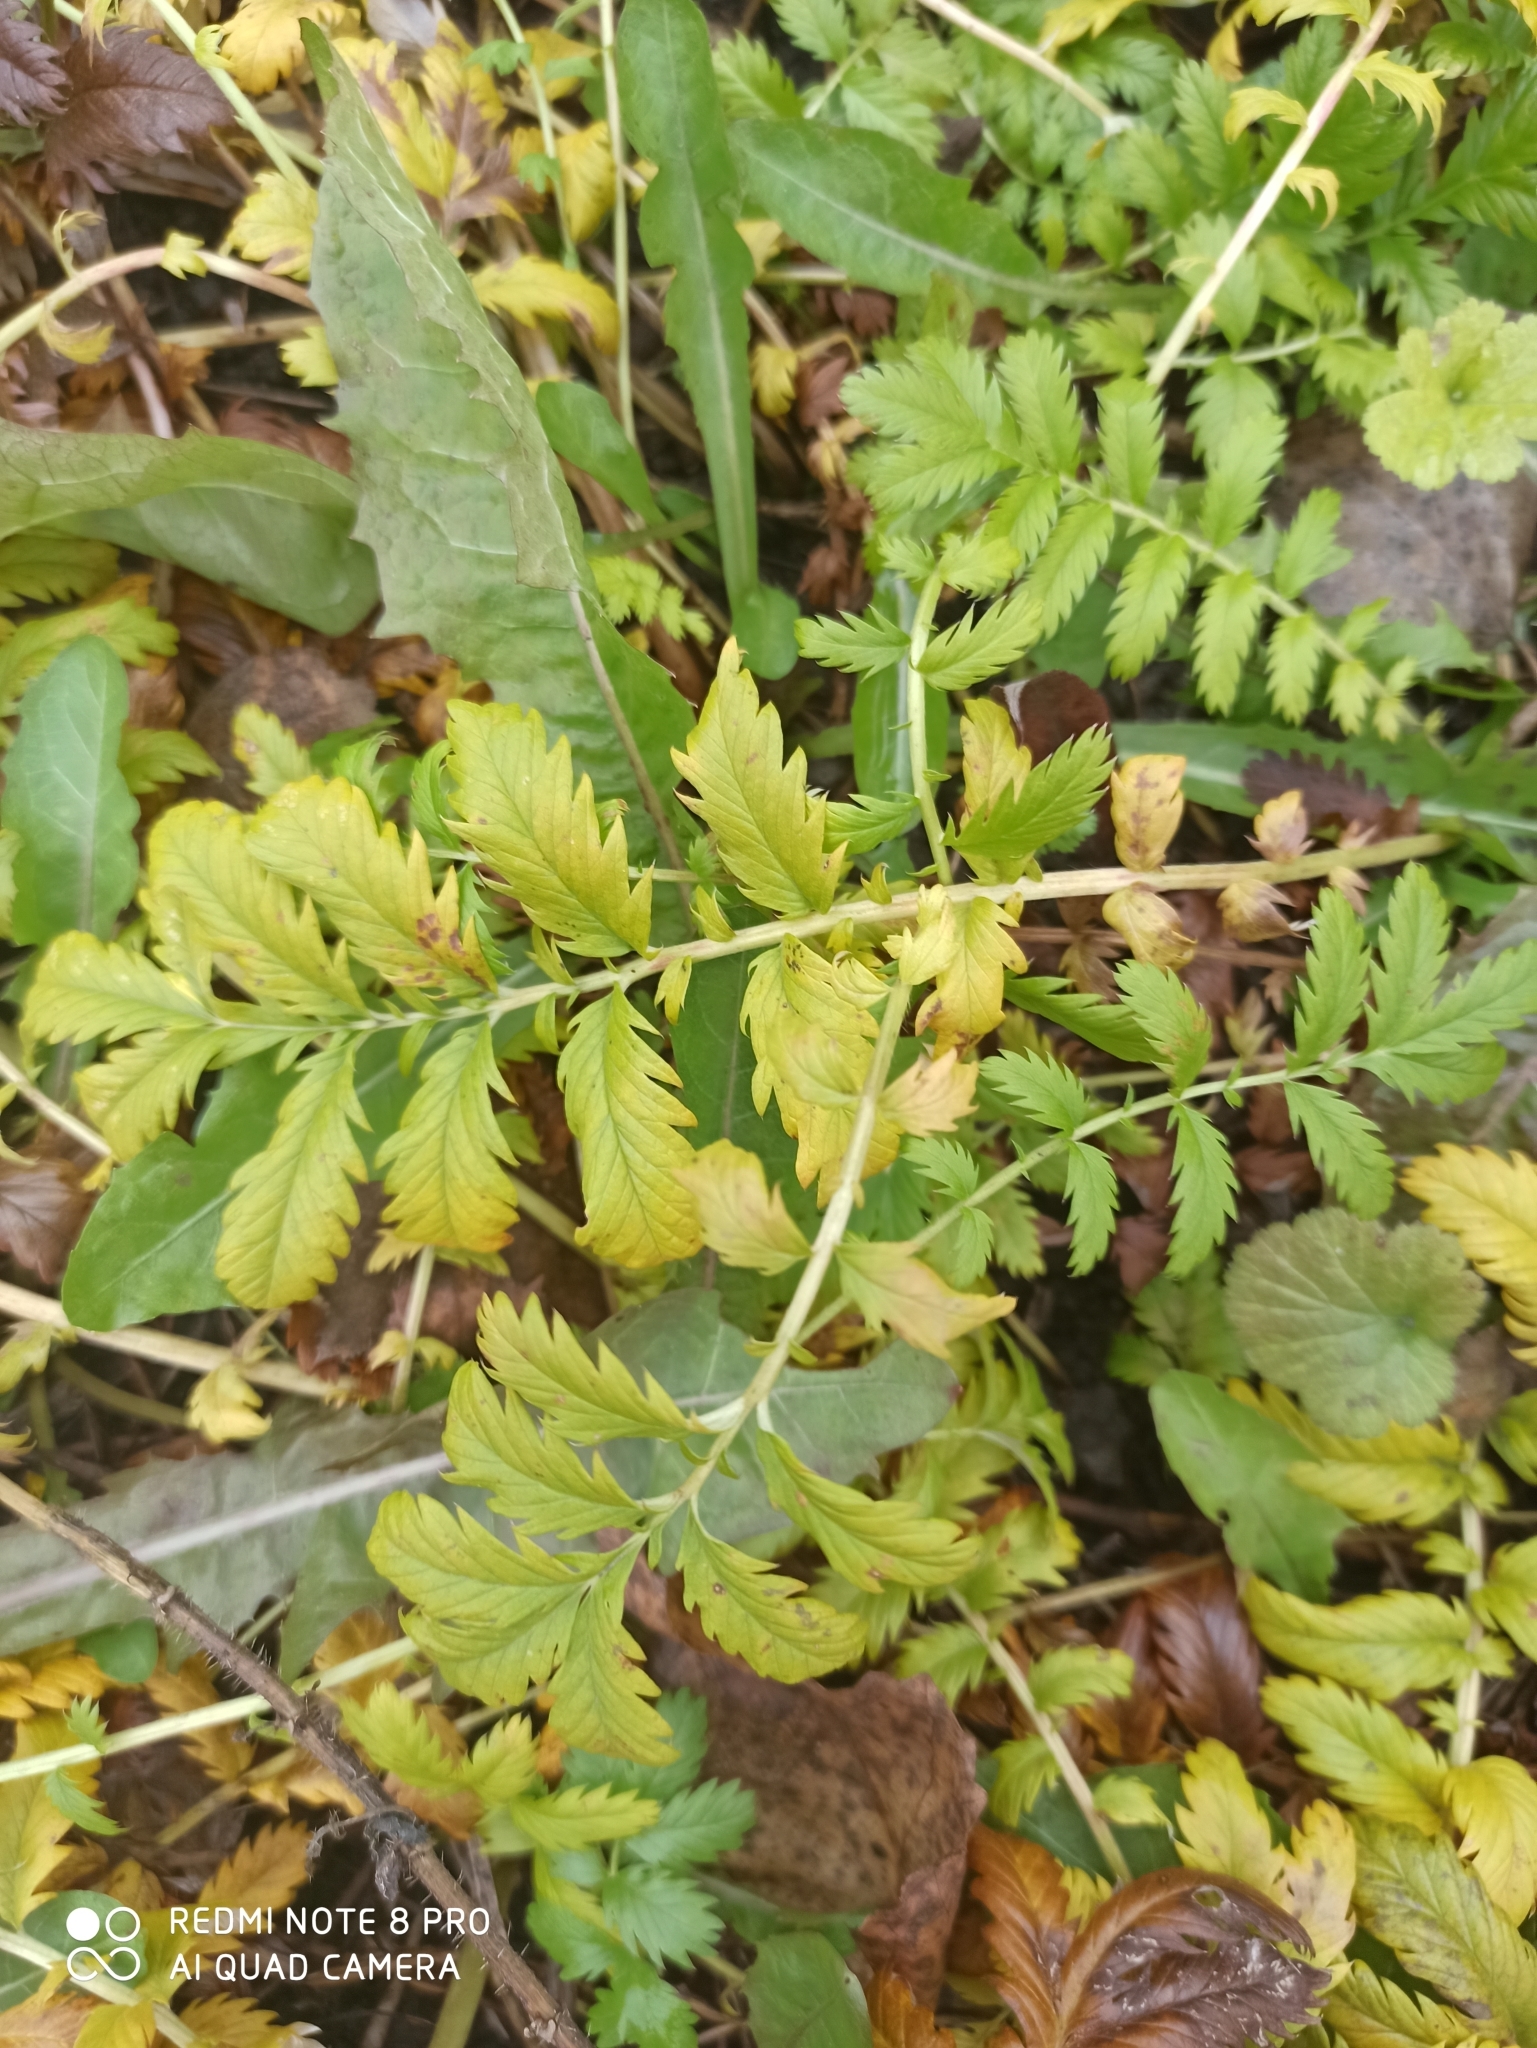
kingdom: Plantae
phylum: Tracheophyta
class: Magnoliopsida
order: Rosales
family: Rosaceae
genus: Argentina
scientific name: Argentina anserina
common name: Common silverweed
